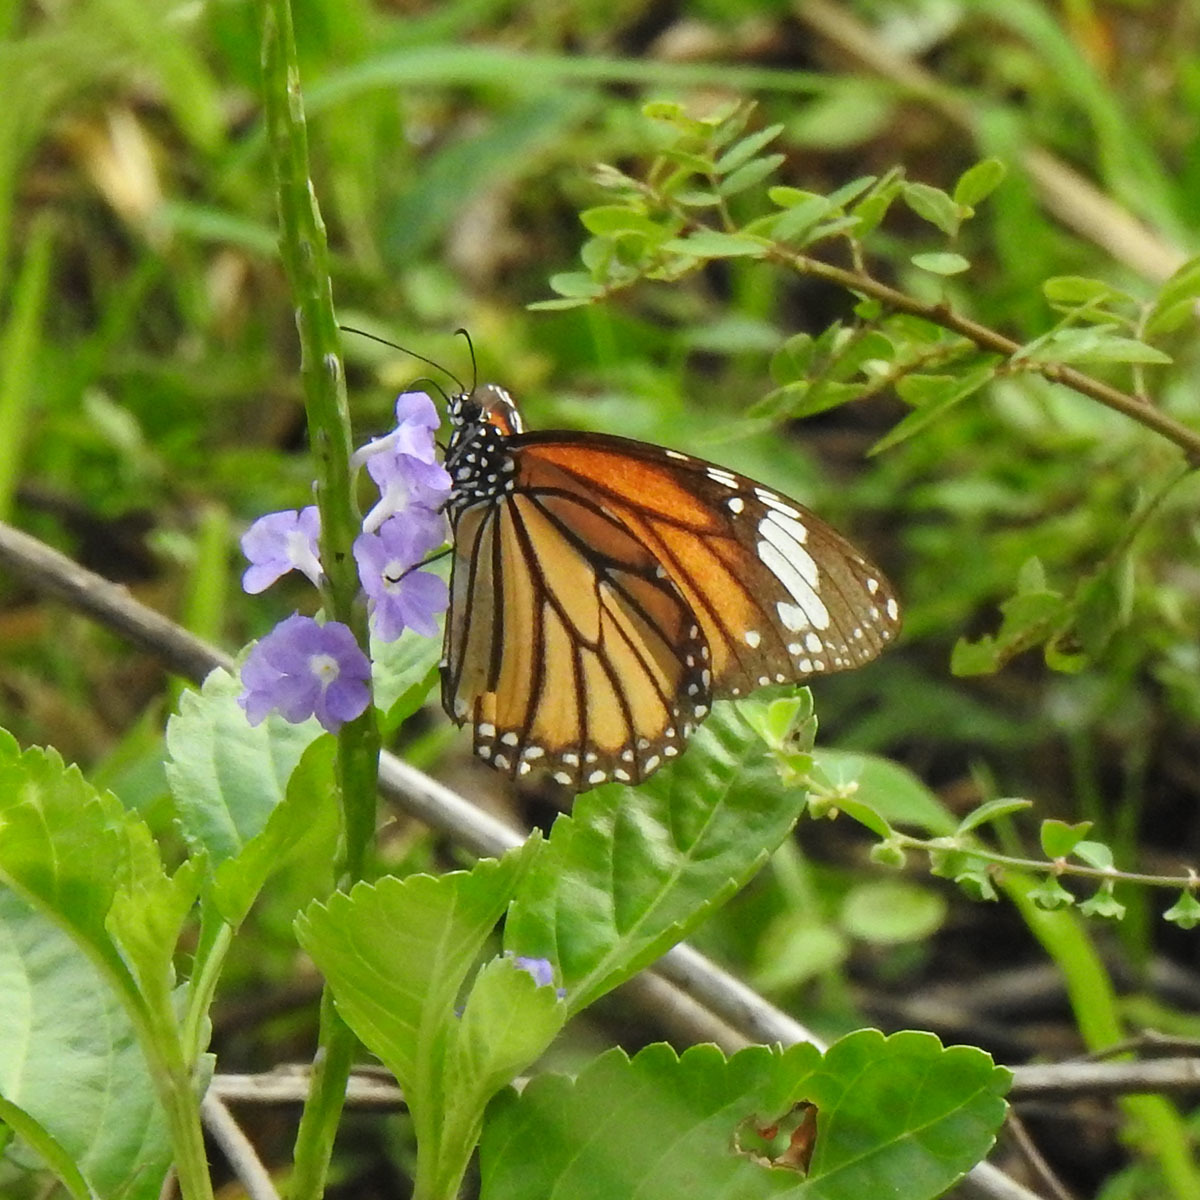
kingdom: Animalia
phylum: Arthropoda
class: Insecta
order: Lepidoptera
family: Nymphalidae
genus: Danaus
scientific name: Danaus genutia
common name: Common tiger butterfly
